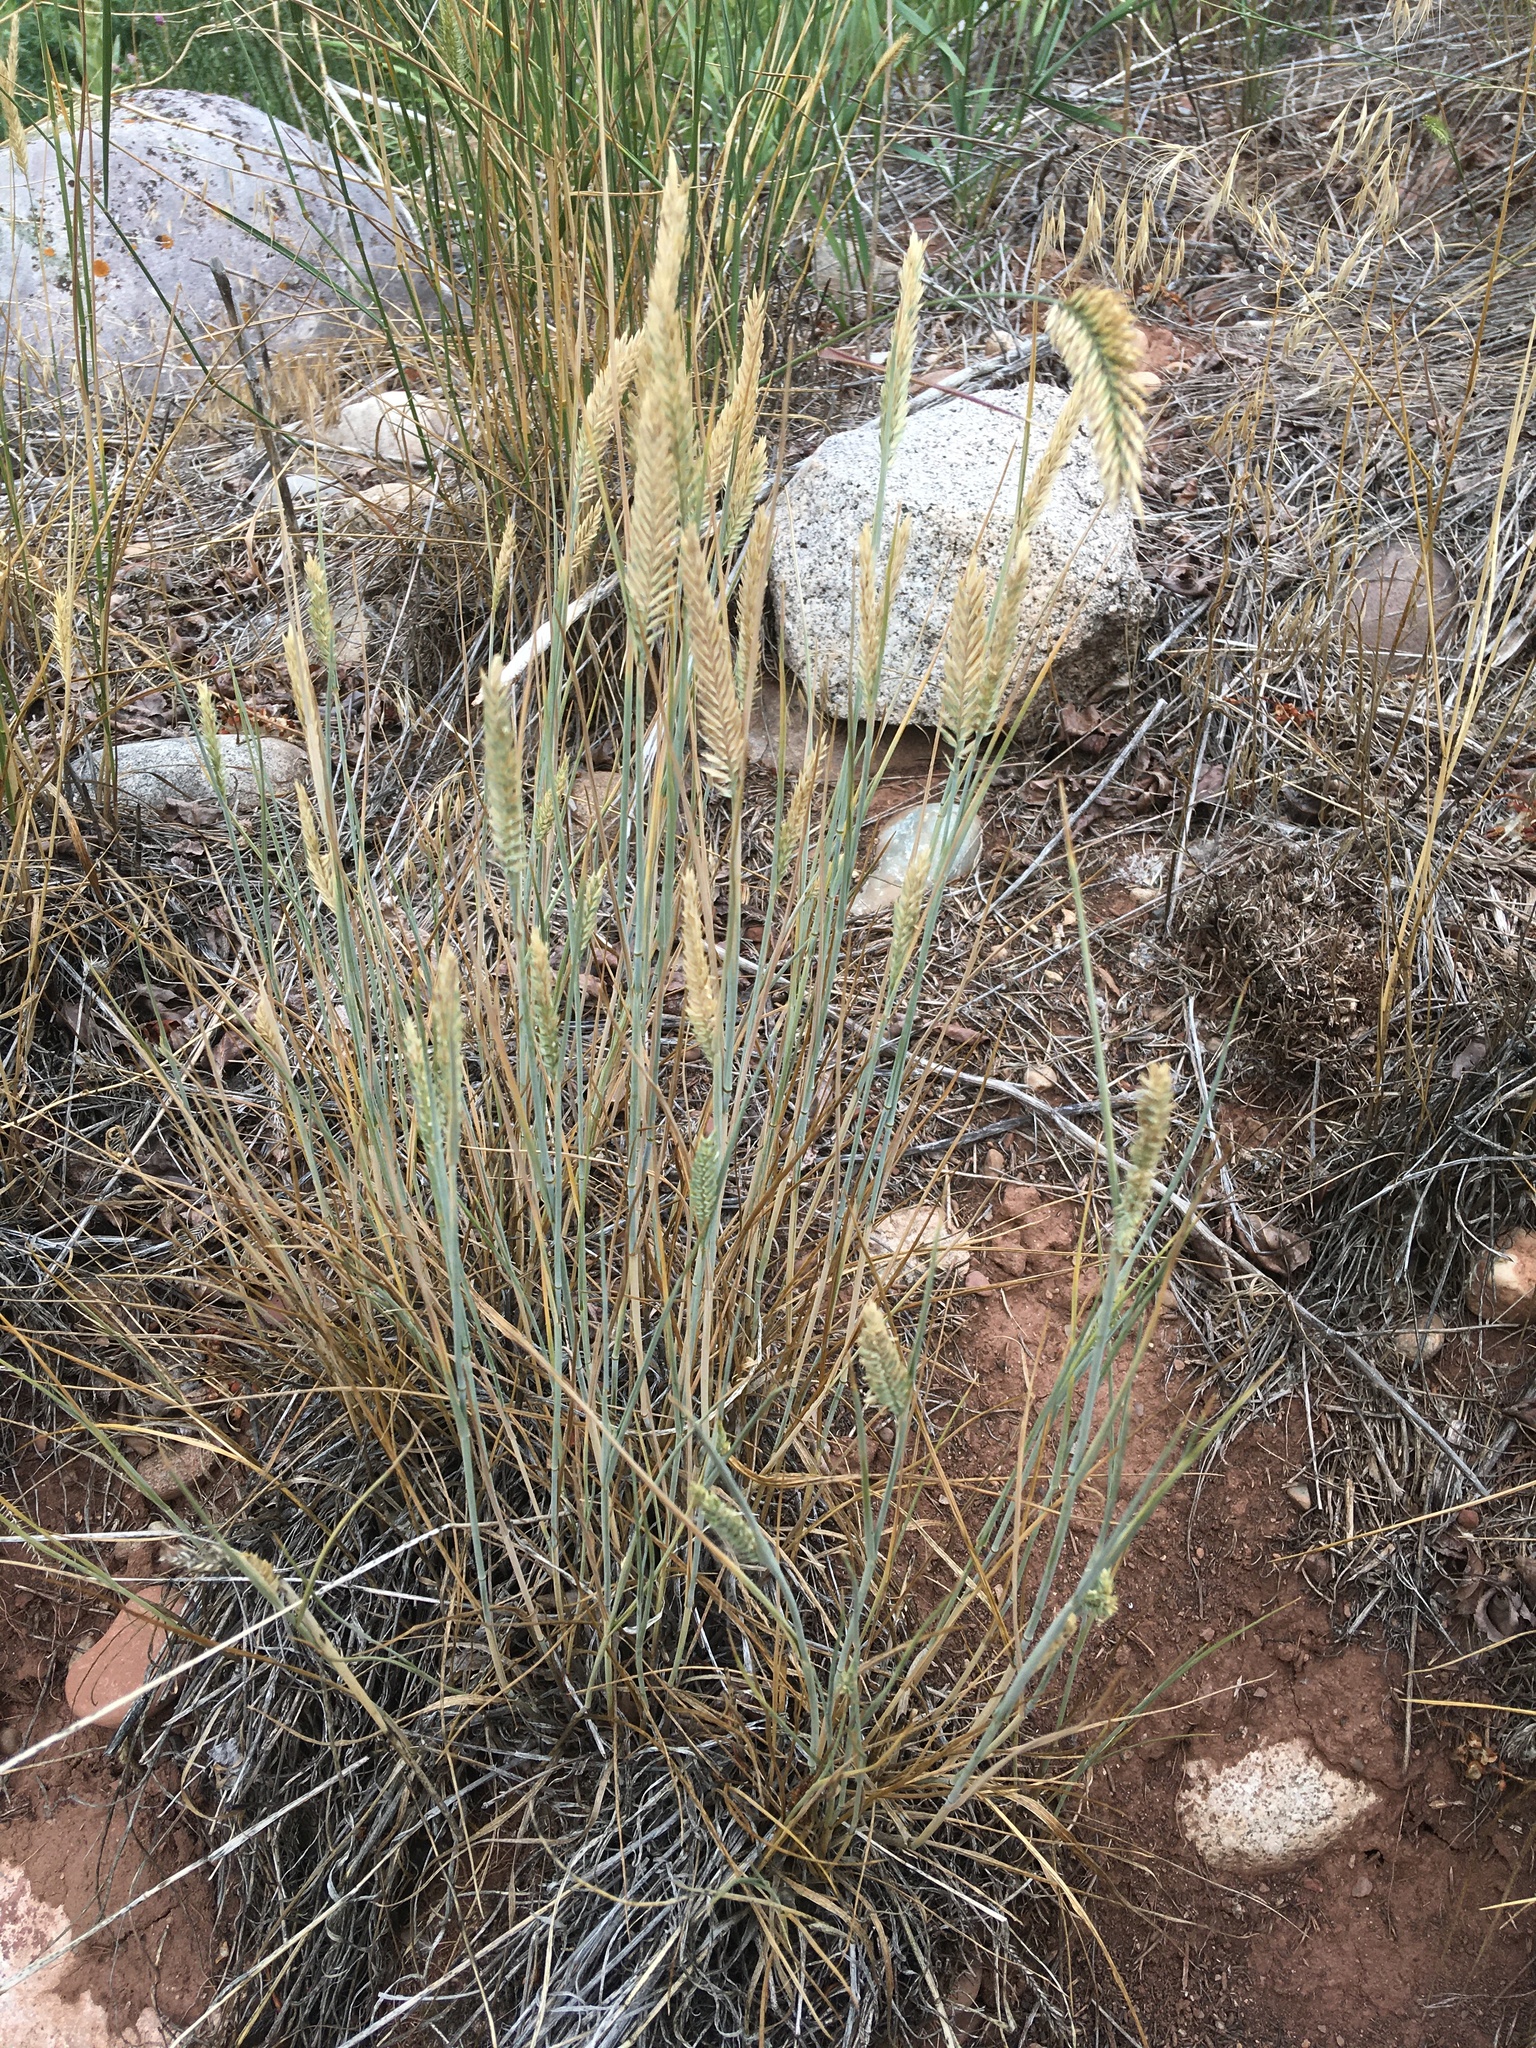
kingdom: Plantae
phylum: Tracheophyta
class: Liliopsida
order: Poales
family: Poaceae
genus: Agropyron
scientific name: Agropyron cristatum
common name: Crested wheatgrass
